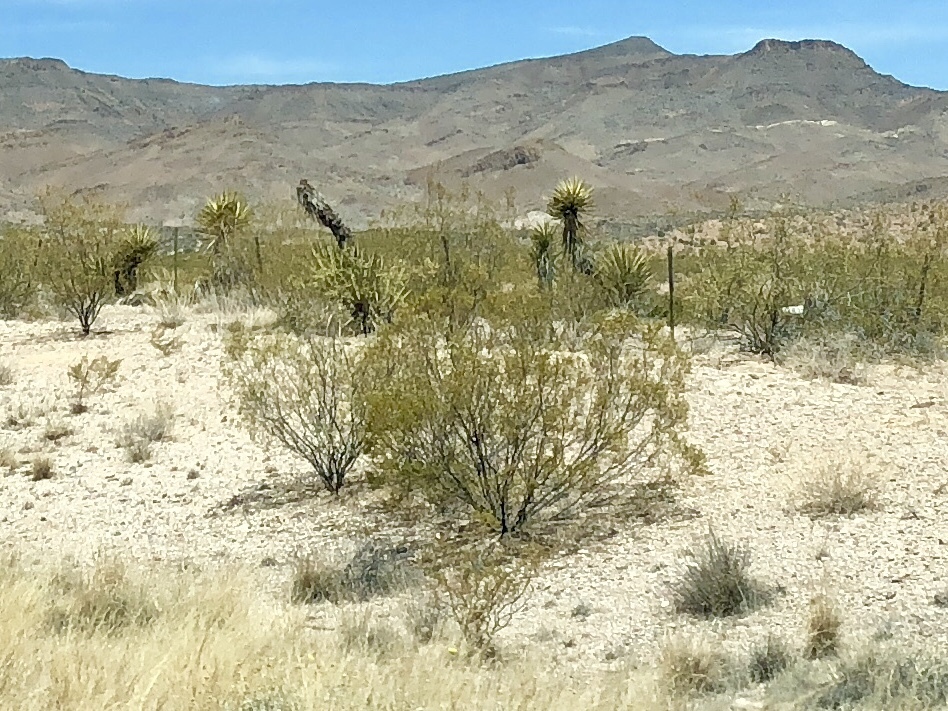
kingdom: Plantae
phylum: Tracheophyta
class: Magnoliopsida
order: Zygophyllales
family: Zygophyllaceae
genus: Larrea
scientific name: Larrea tridentata
